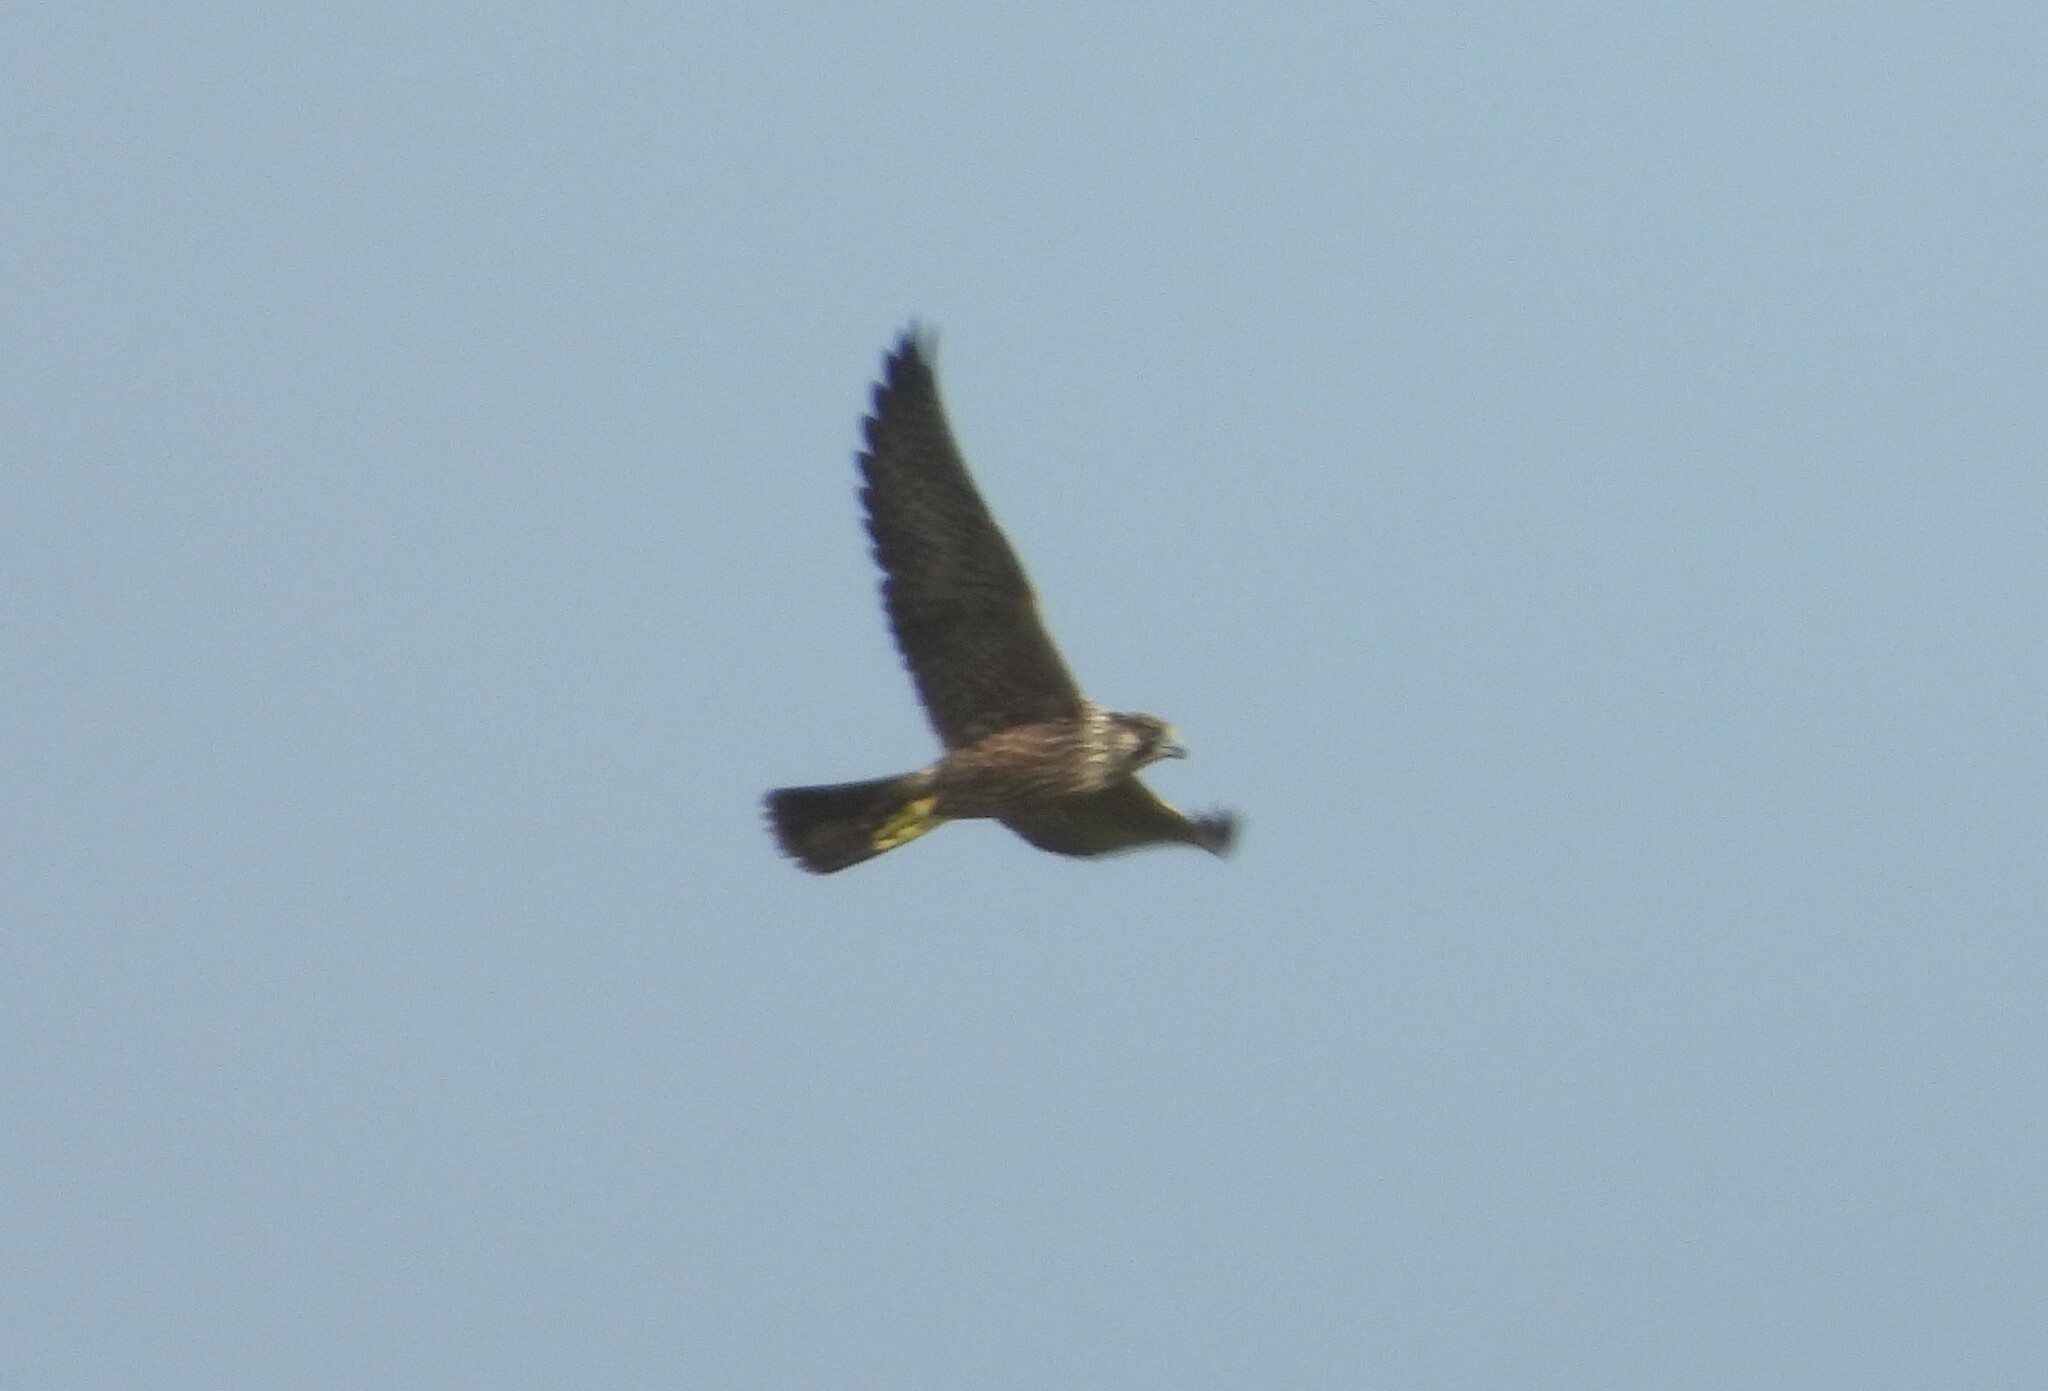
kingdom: Animalia
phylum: Chordata
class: Aves
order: Falconiformes
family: Falconidae
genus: Falco
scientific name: Falco peregrinus
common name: Peregrine falcon
